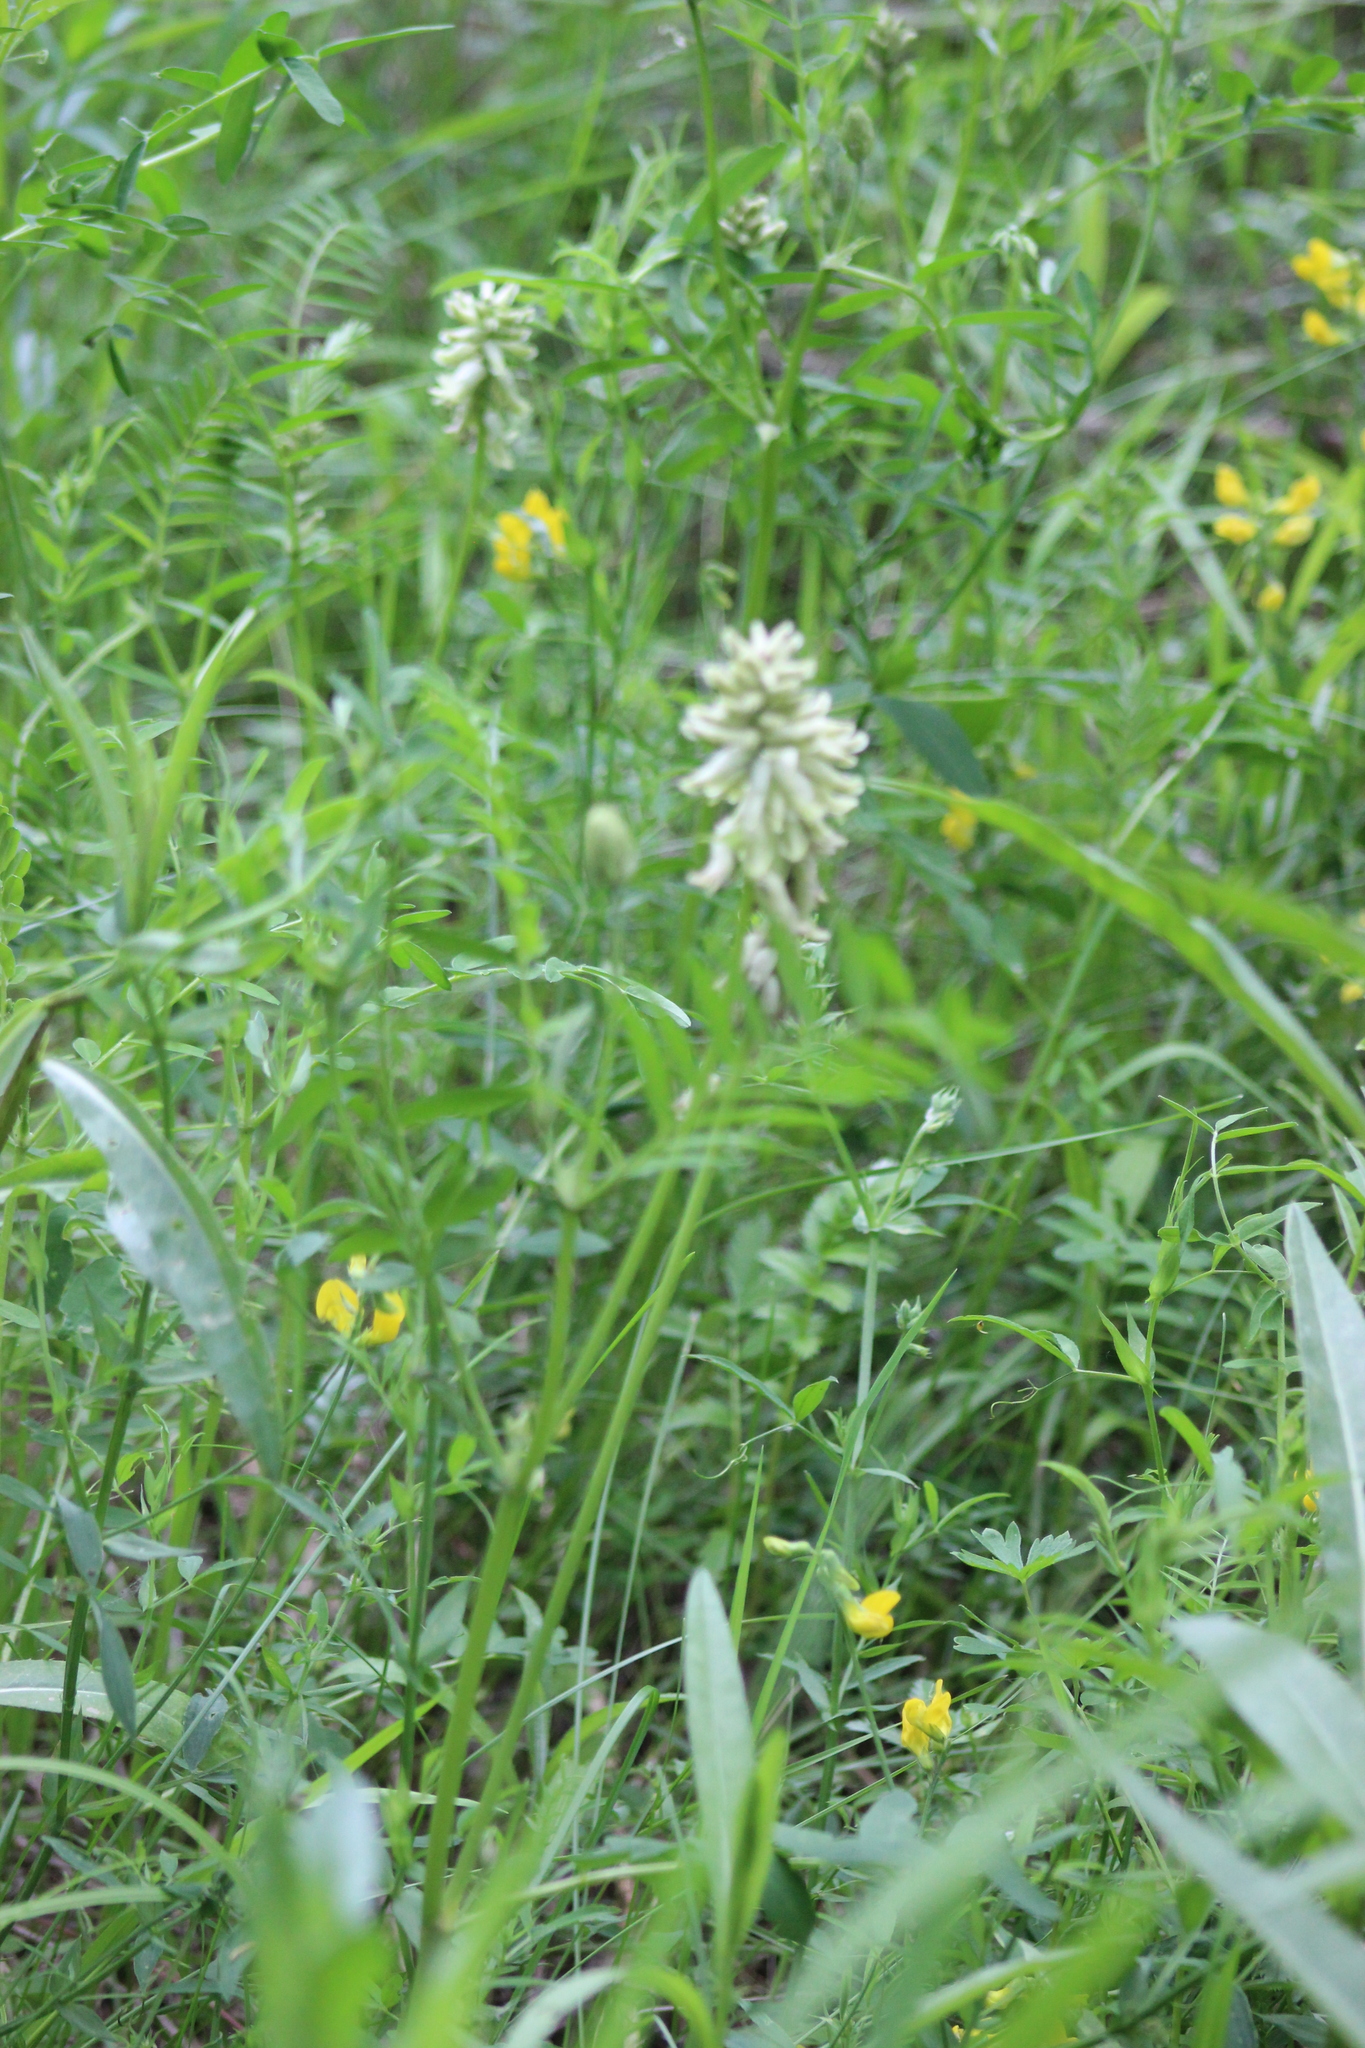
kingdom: Plantae
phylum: Tracheophyta
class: Magnoliopsida
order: Fabales
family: Fabaceae
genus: Astragalus
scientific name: Astragalus uliginosus
